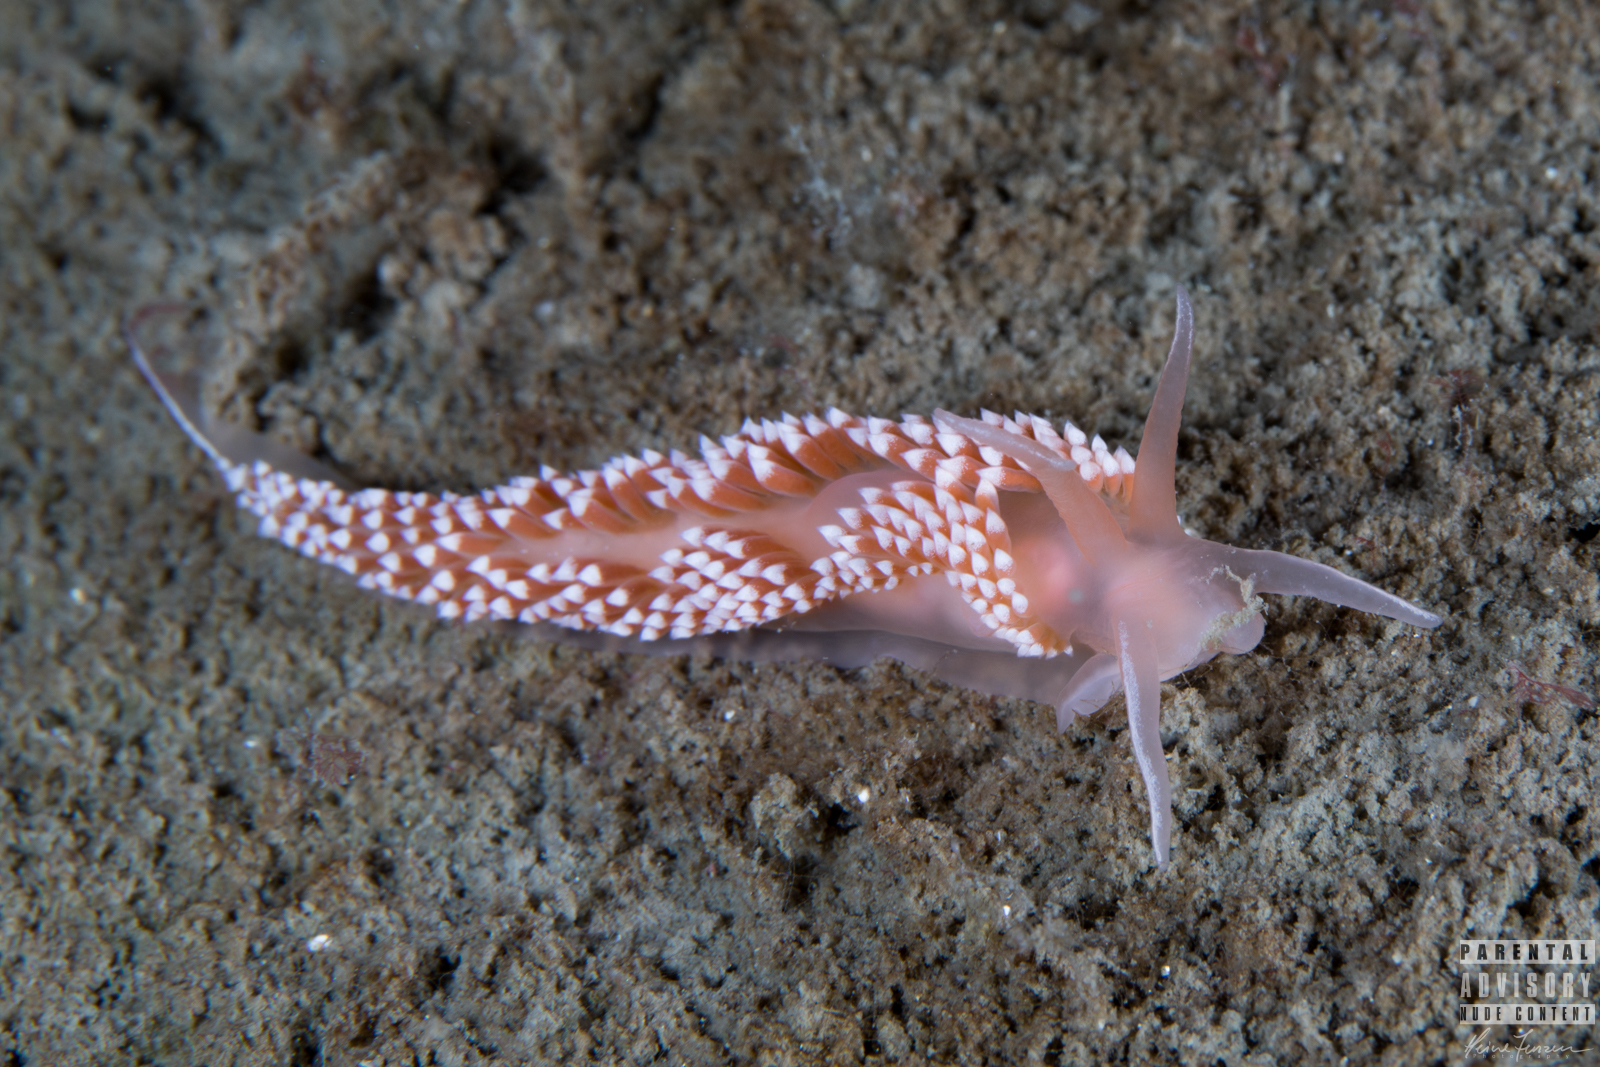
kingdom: Animalia
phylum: Mollusca
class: Gastropoda
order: Nudibranchia
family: Coryphellidae
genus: Coryphella
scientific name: Coryphella verrucosa
